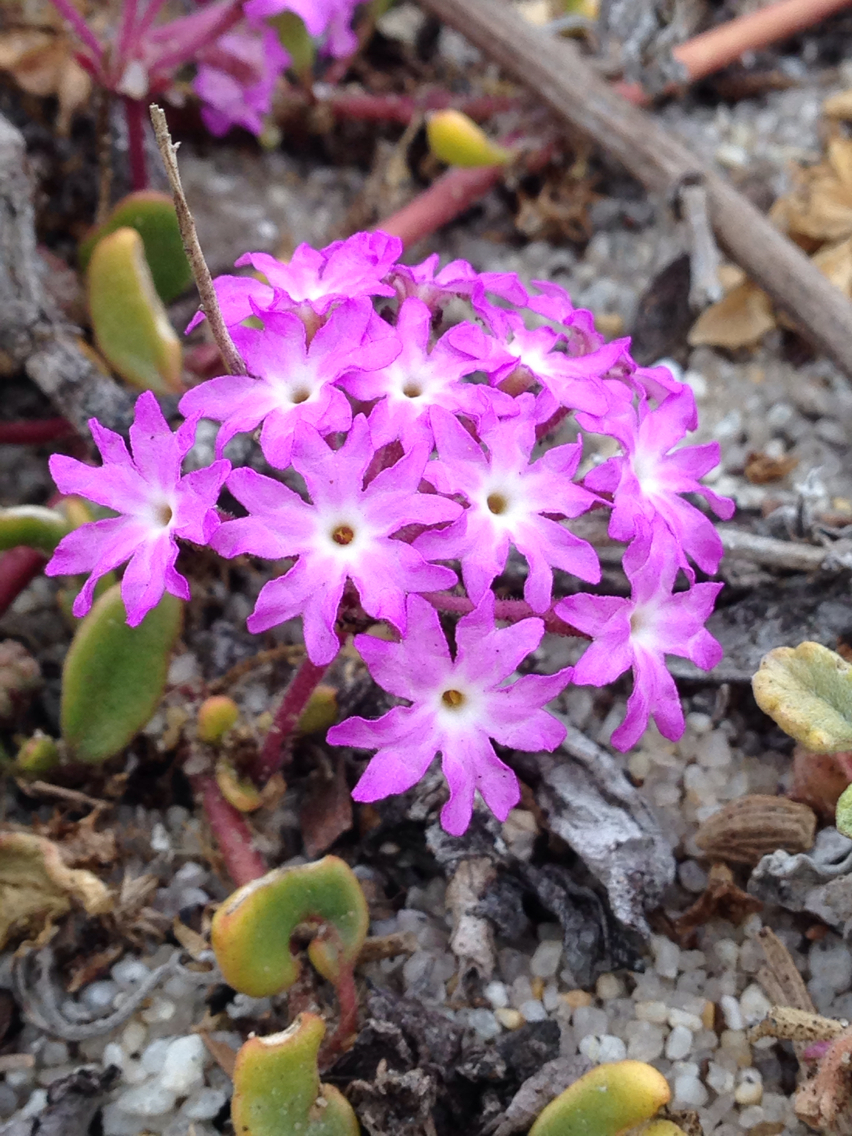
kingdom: Plantae
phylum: Tracheophyta
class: Magnoliopsida
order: Caryophyllales
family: Nyctaginaceae
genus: Abronia
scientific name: Abronia umbellata
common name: Sand-verbena
